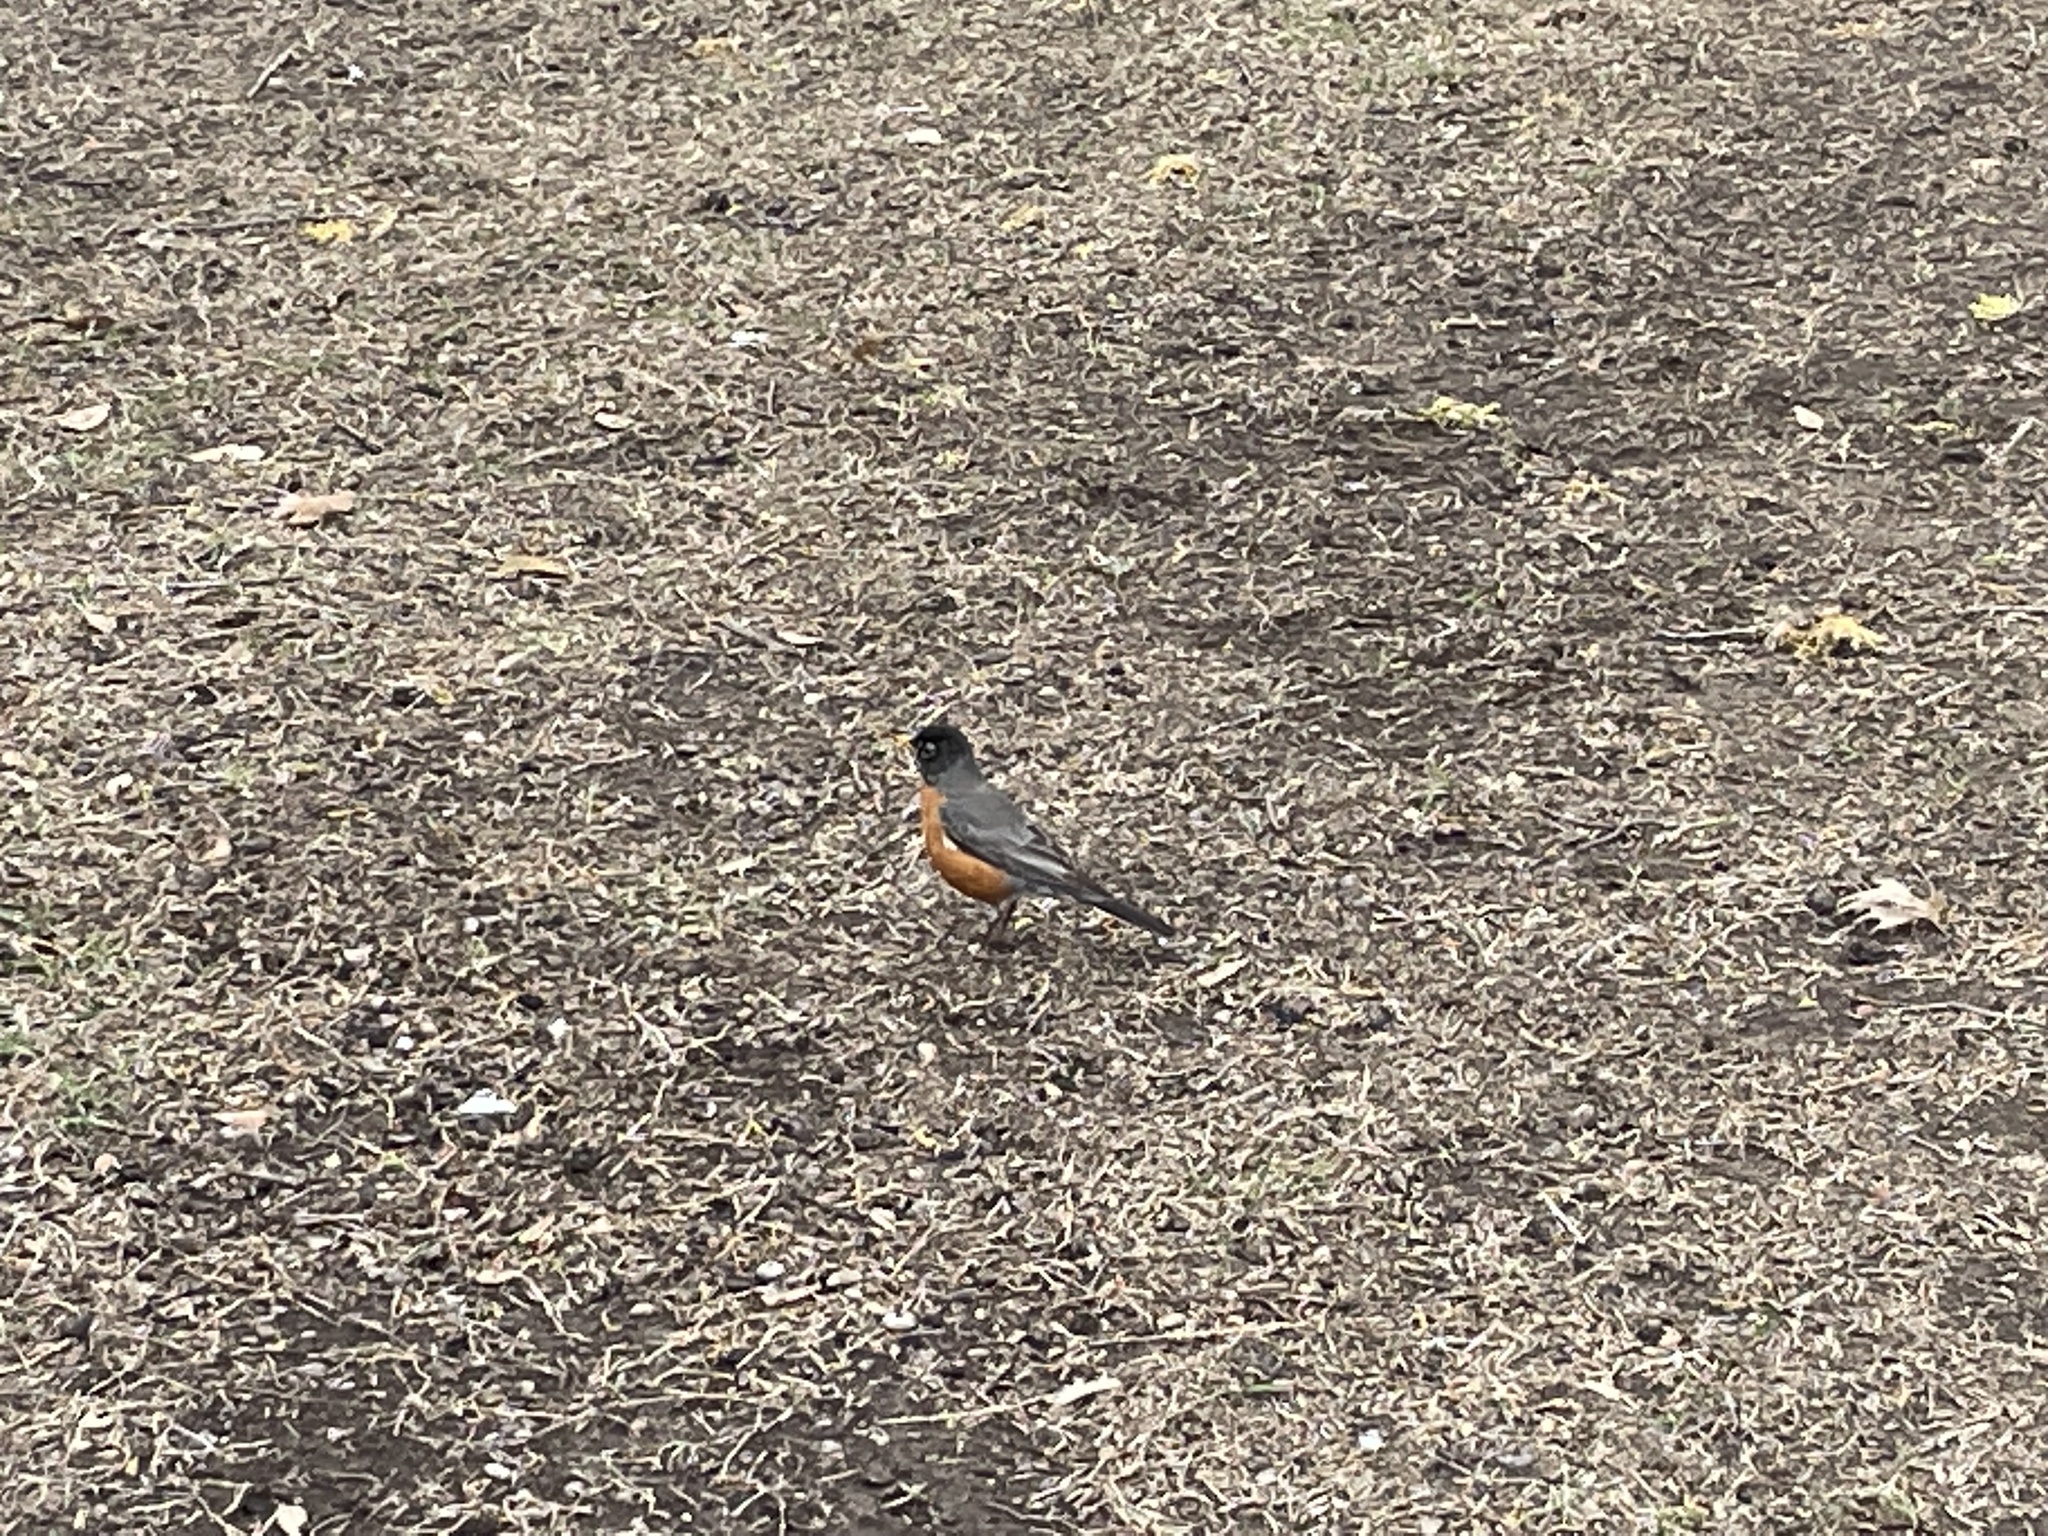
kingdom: Animalia
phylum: Chordata
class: Aves
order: Passeriformes
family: Turdidae
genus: Turdus
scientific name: Turdus migratorius
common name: American robin
